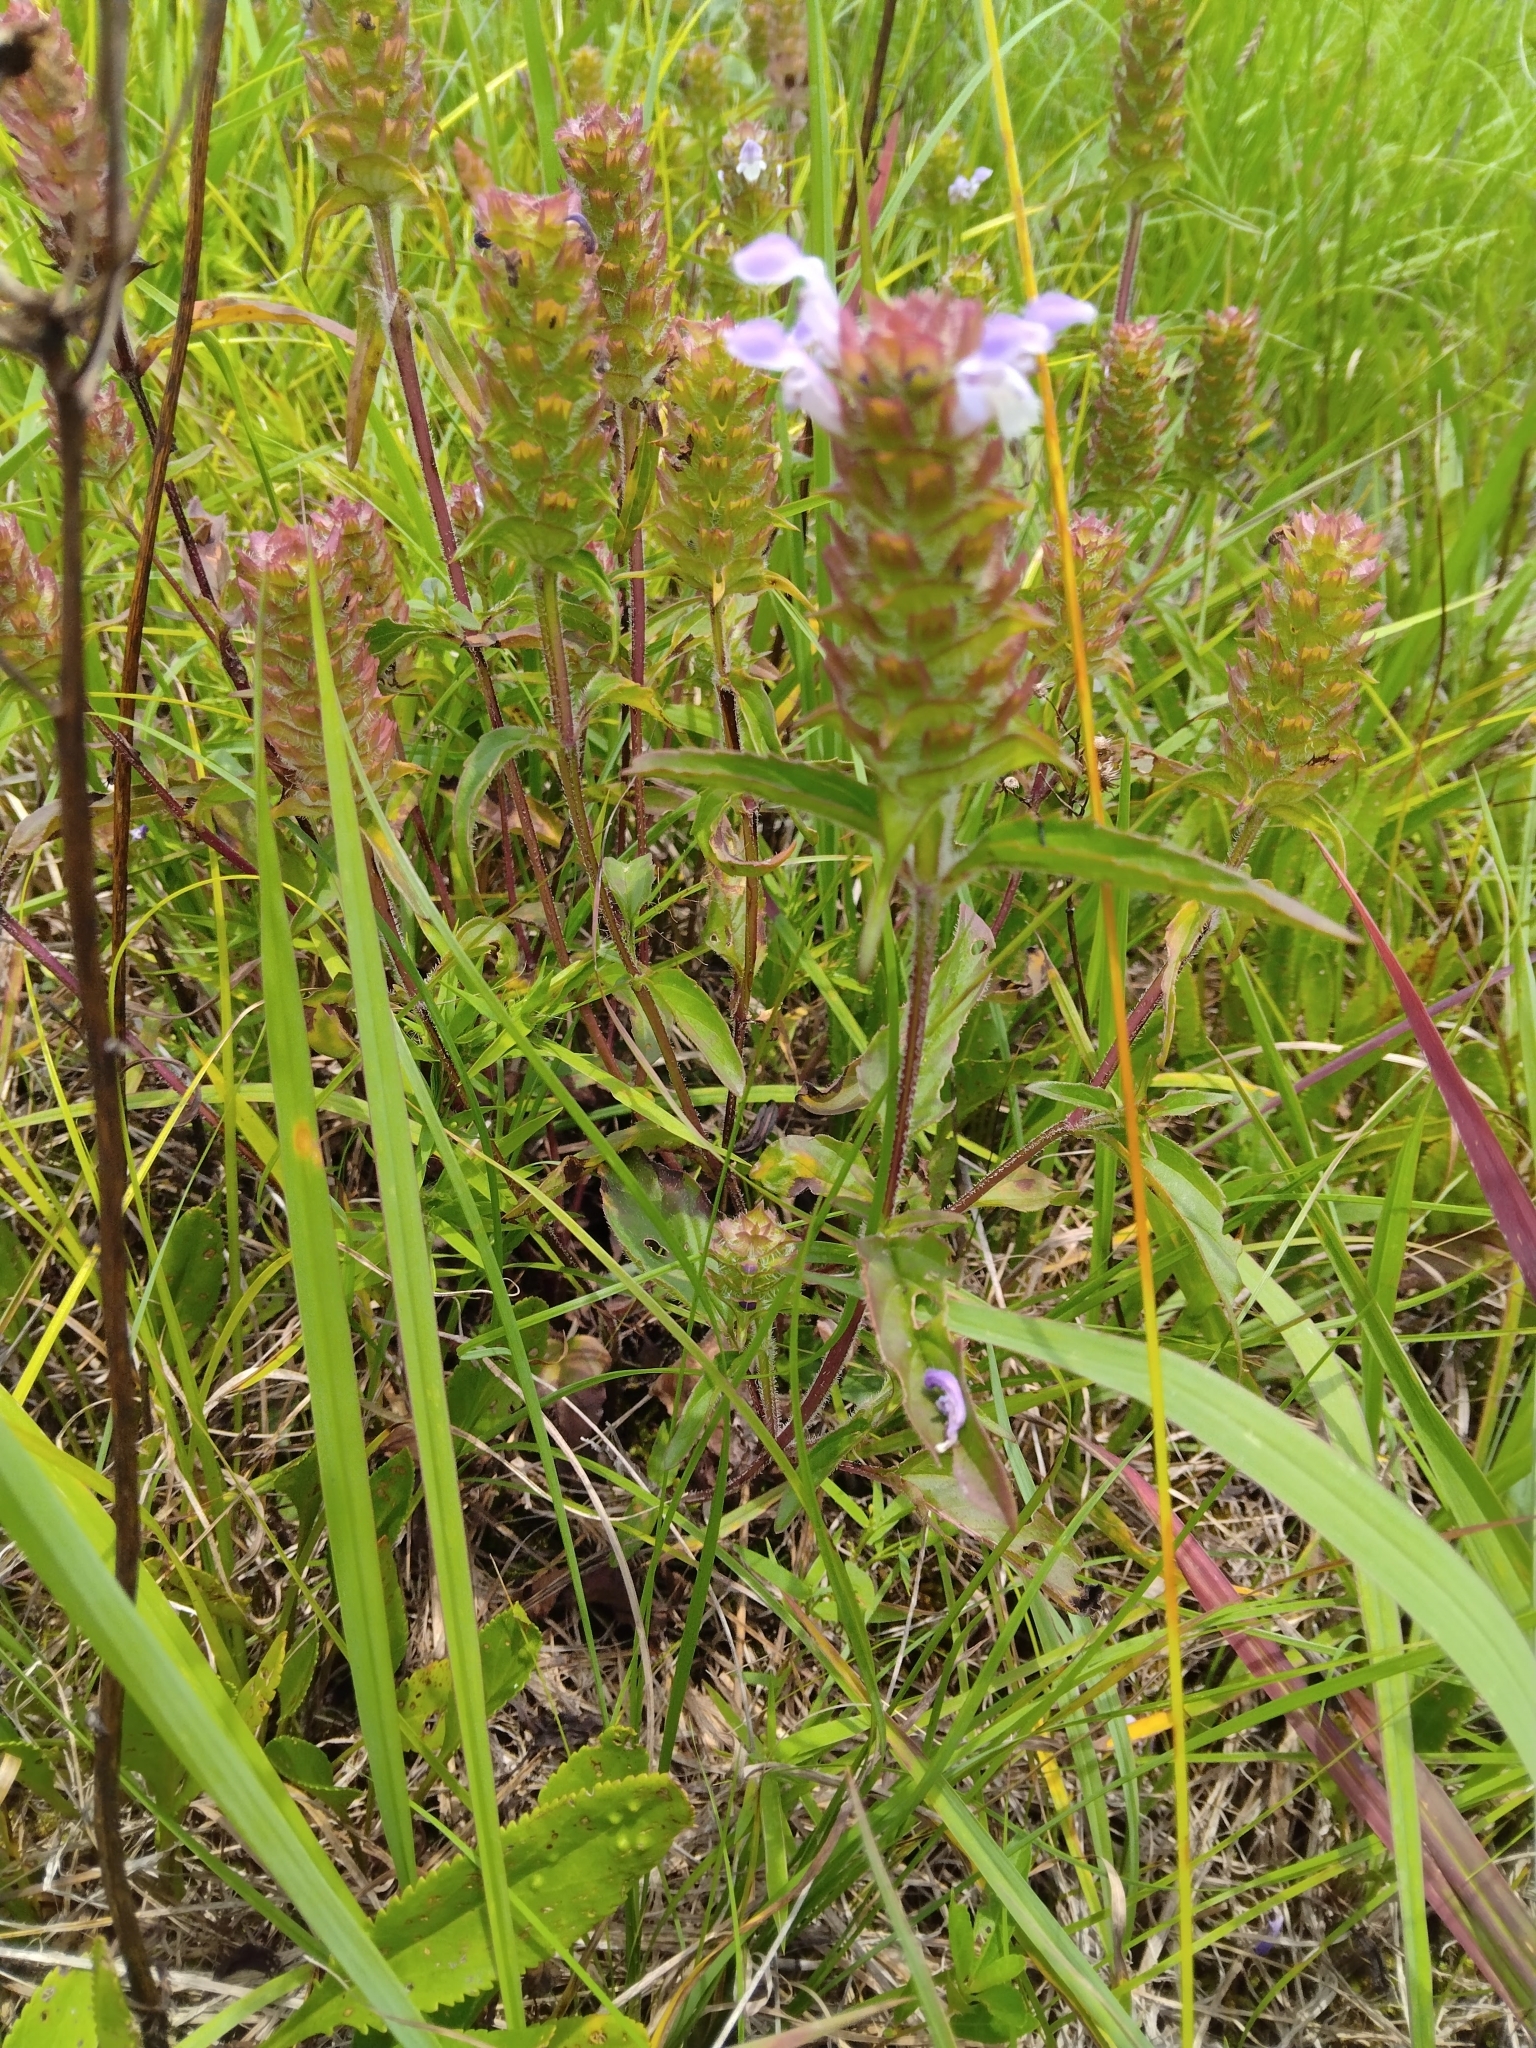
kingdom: Plantae
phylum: Tracheophyta
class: Magnoliopsida
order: Lamiales
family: Lamiaceae
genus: Prunella
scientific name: Prunella vulgaris
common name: Heal-all
